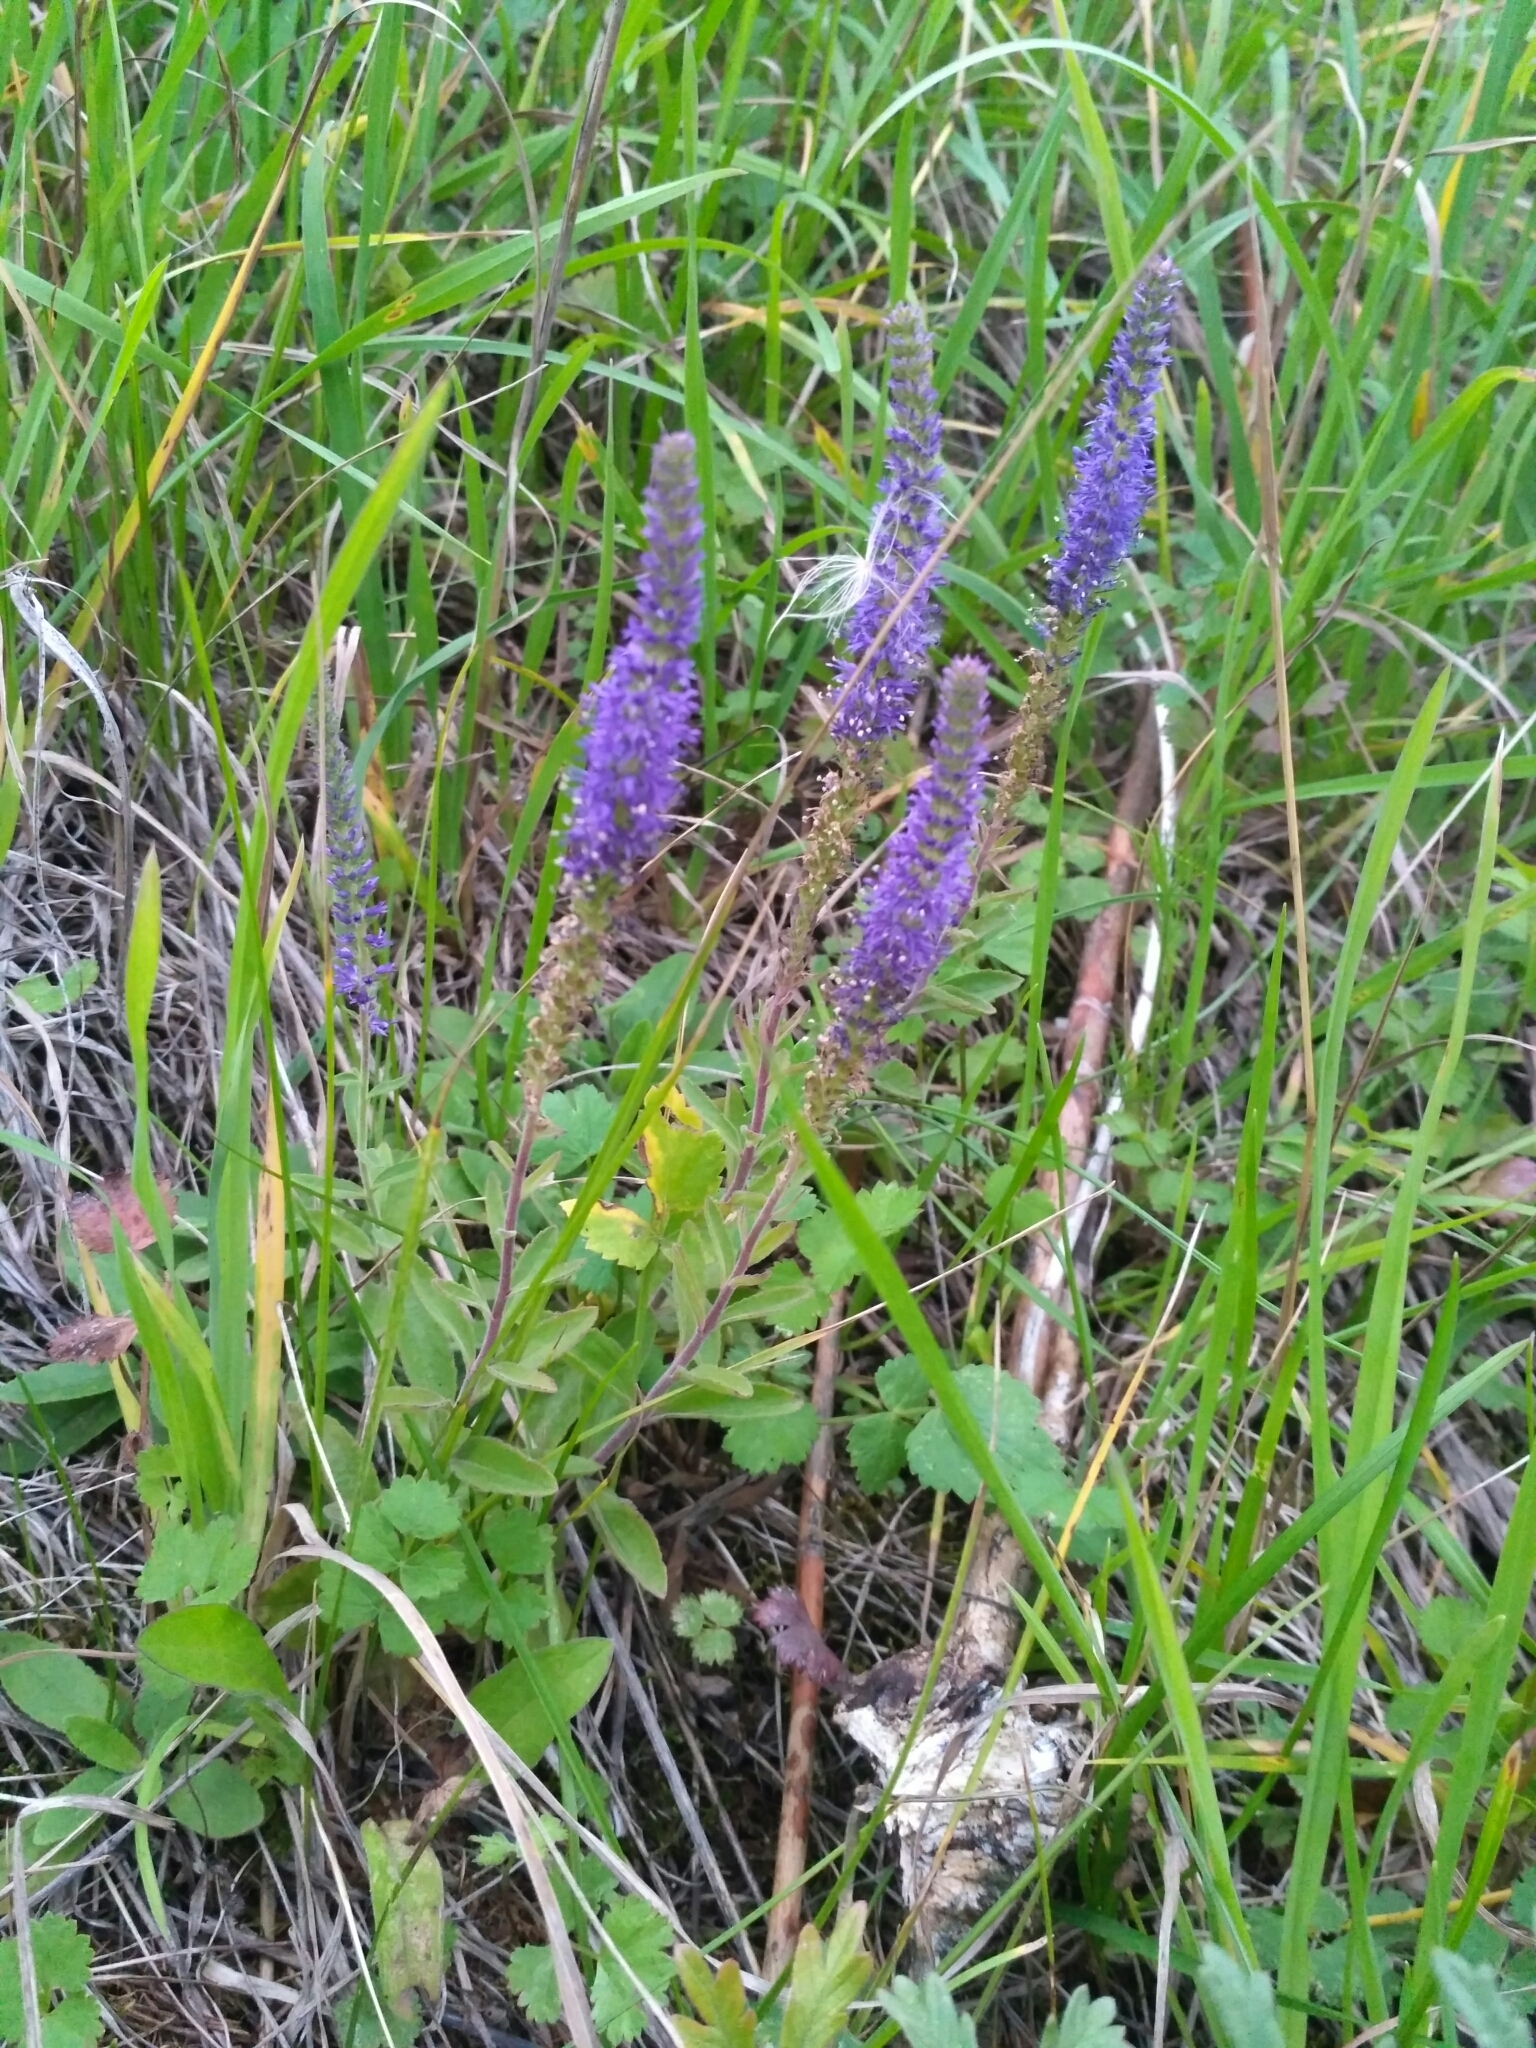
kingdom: Plantae
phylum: Tracheophyta
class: Magnoliopsida
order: Lamiales
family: Plantaginaceae
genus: Veronica
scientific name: Veronica spicata
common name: Spiked speedwell
